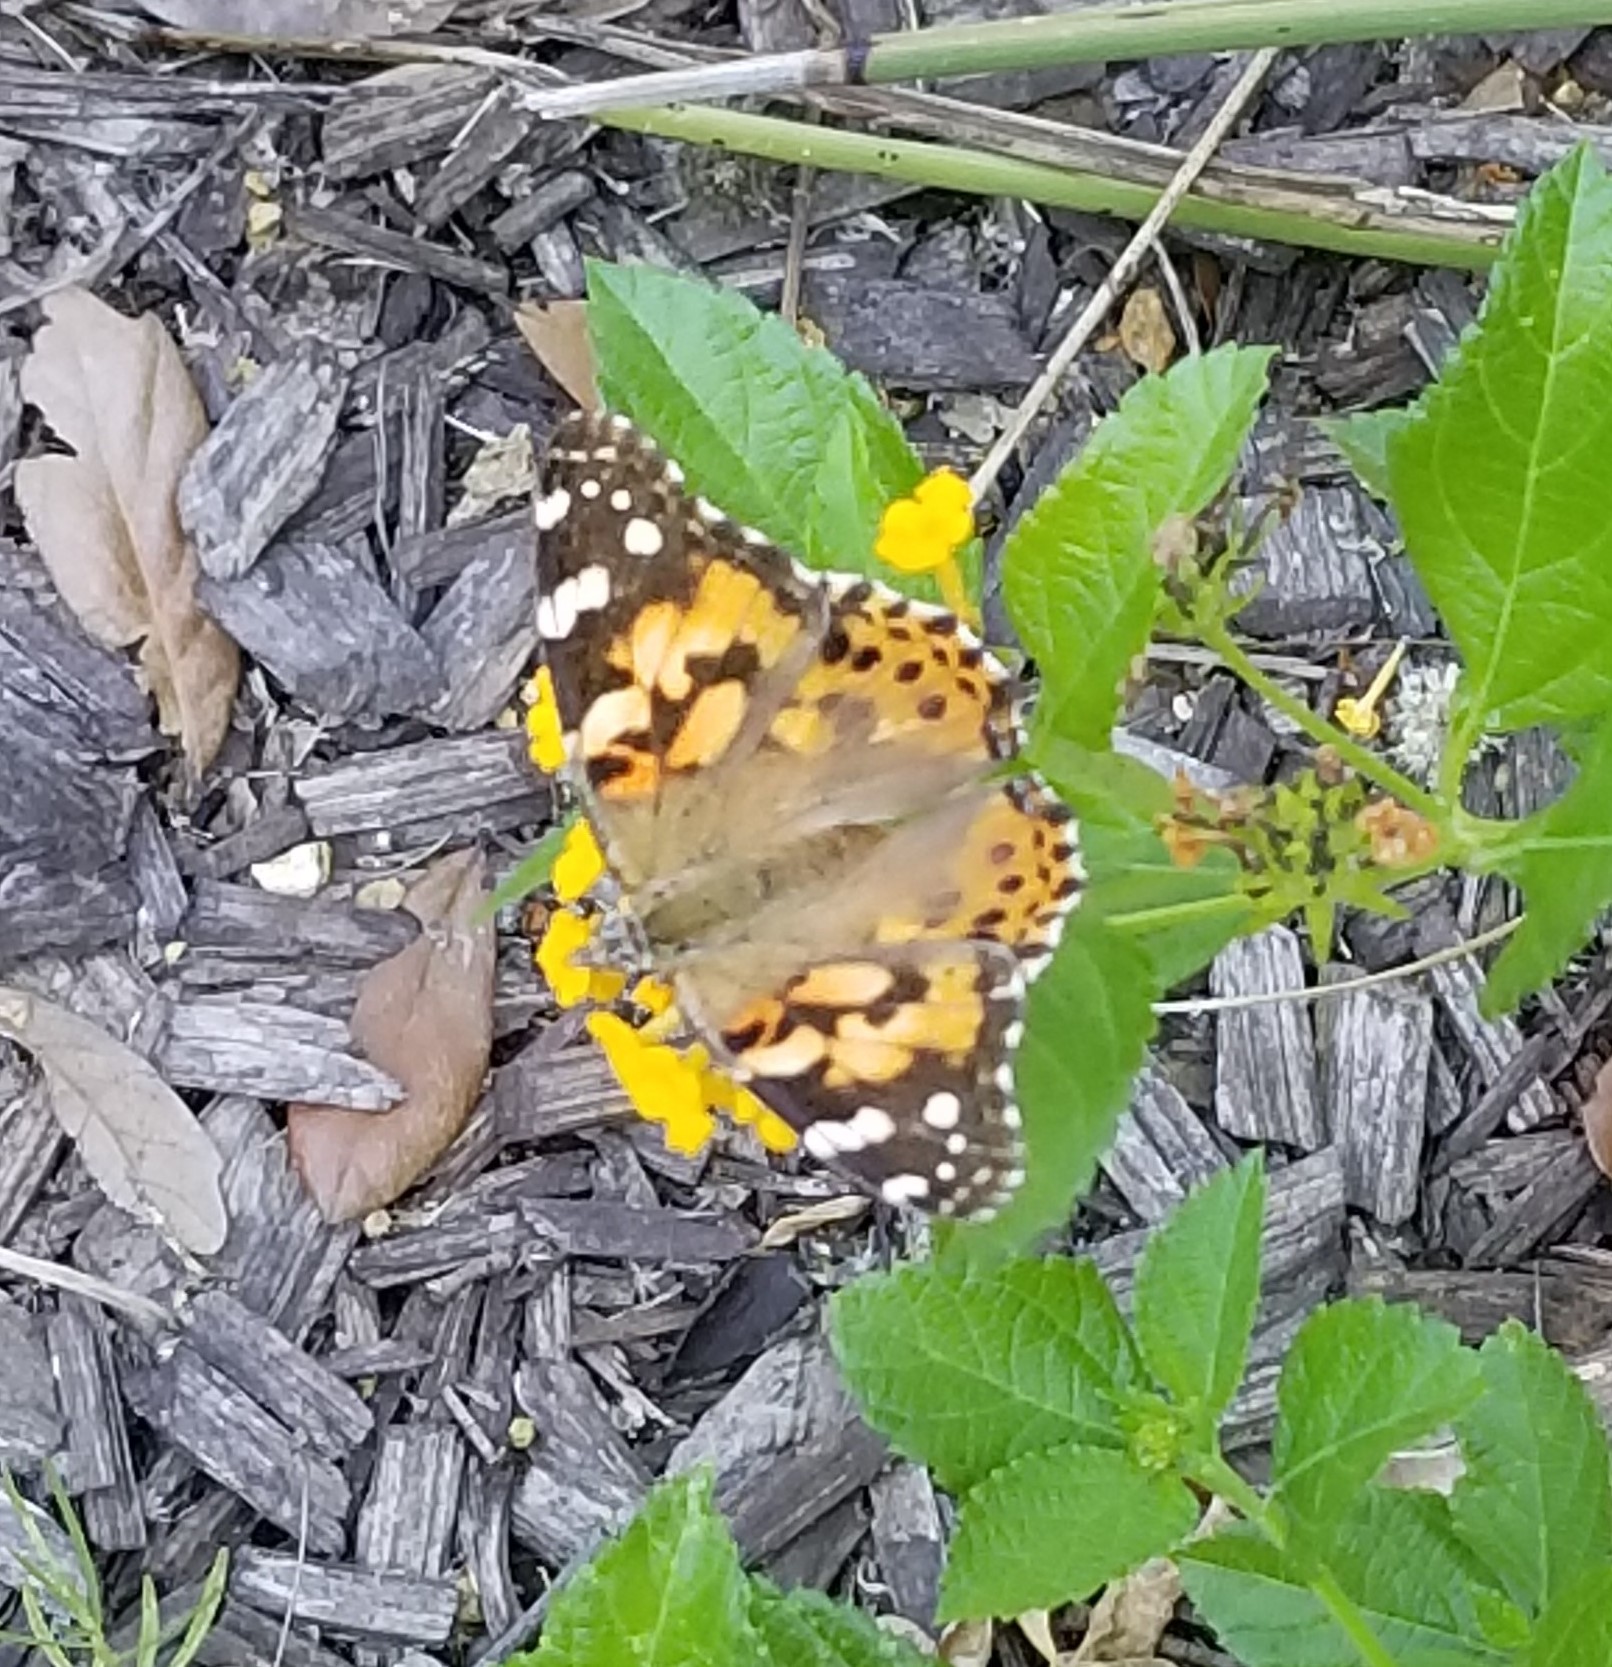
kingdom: Animalia
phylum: Arthropoda
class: Insecta
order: Lepidoptera
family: Nymphalidae
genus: Vanessa
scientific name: Vanessa cardui
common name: Painted lady
